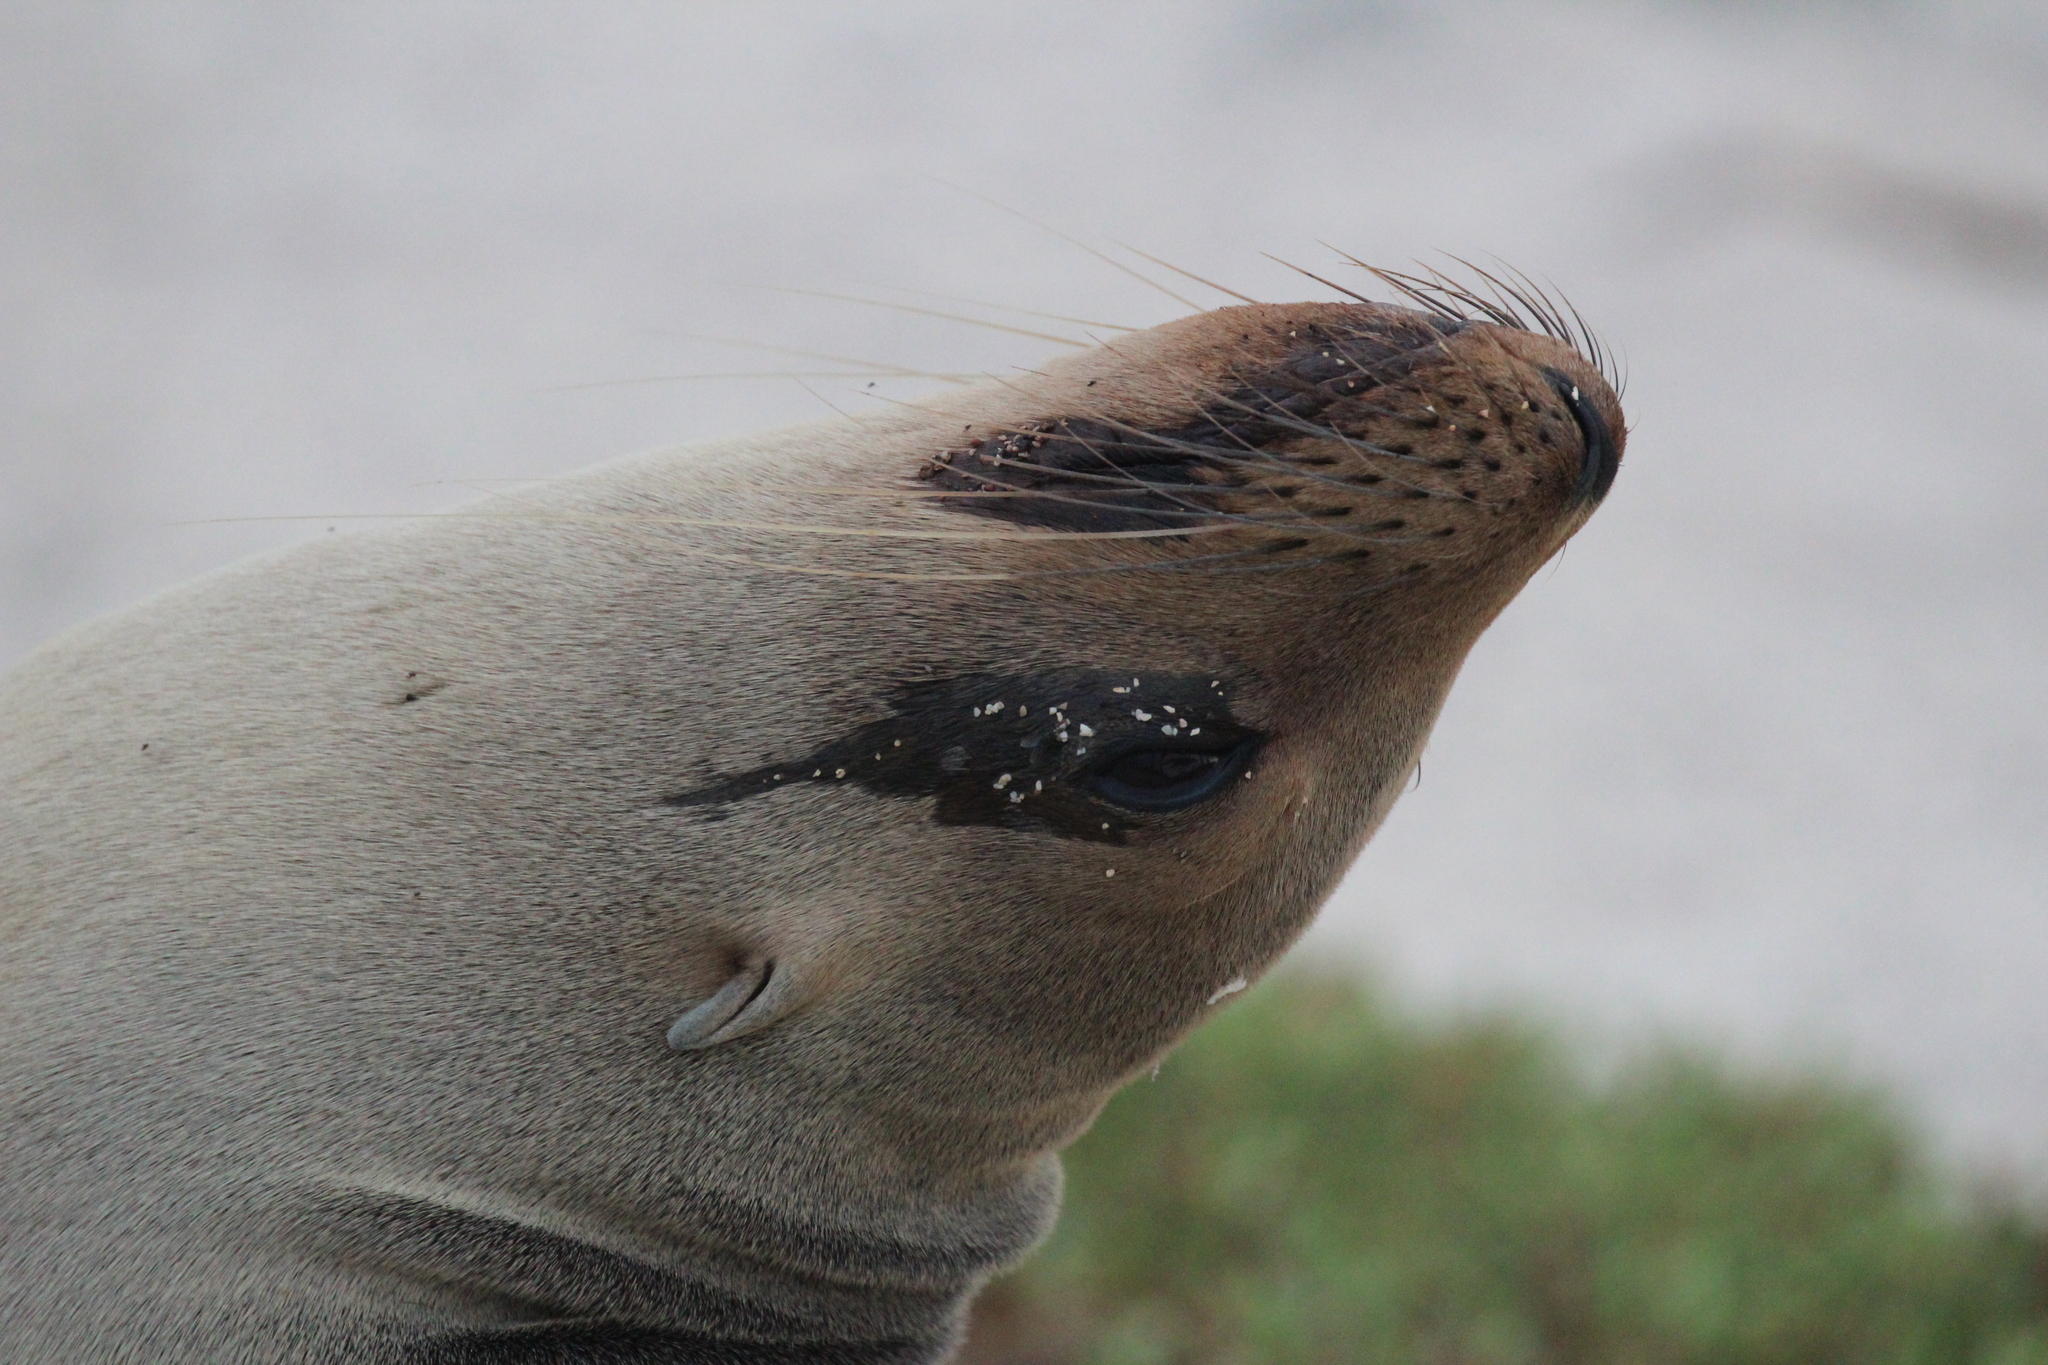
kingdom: Animalia
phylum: Chordata
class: Mammalia
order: Carnivora
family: Otariidae
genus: Zalophus
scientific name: Zalophus wollebaeki
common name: Galapagos sea lion
